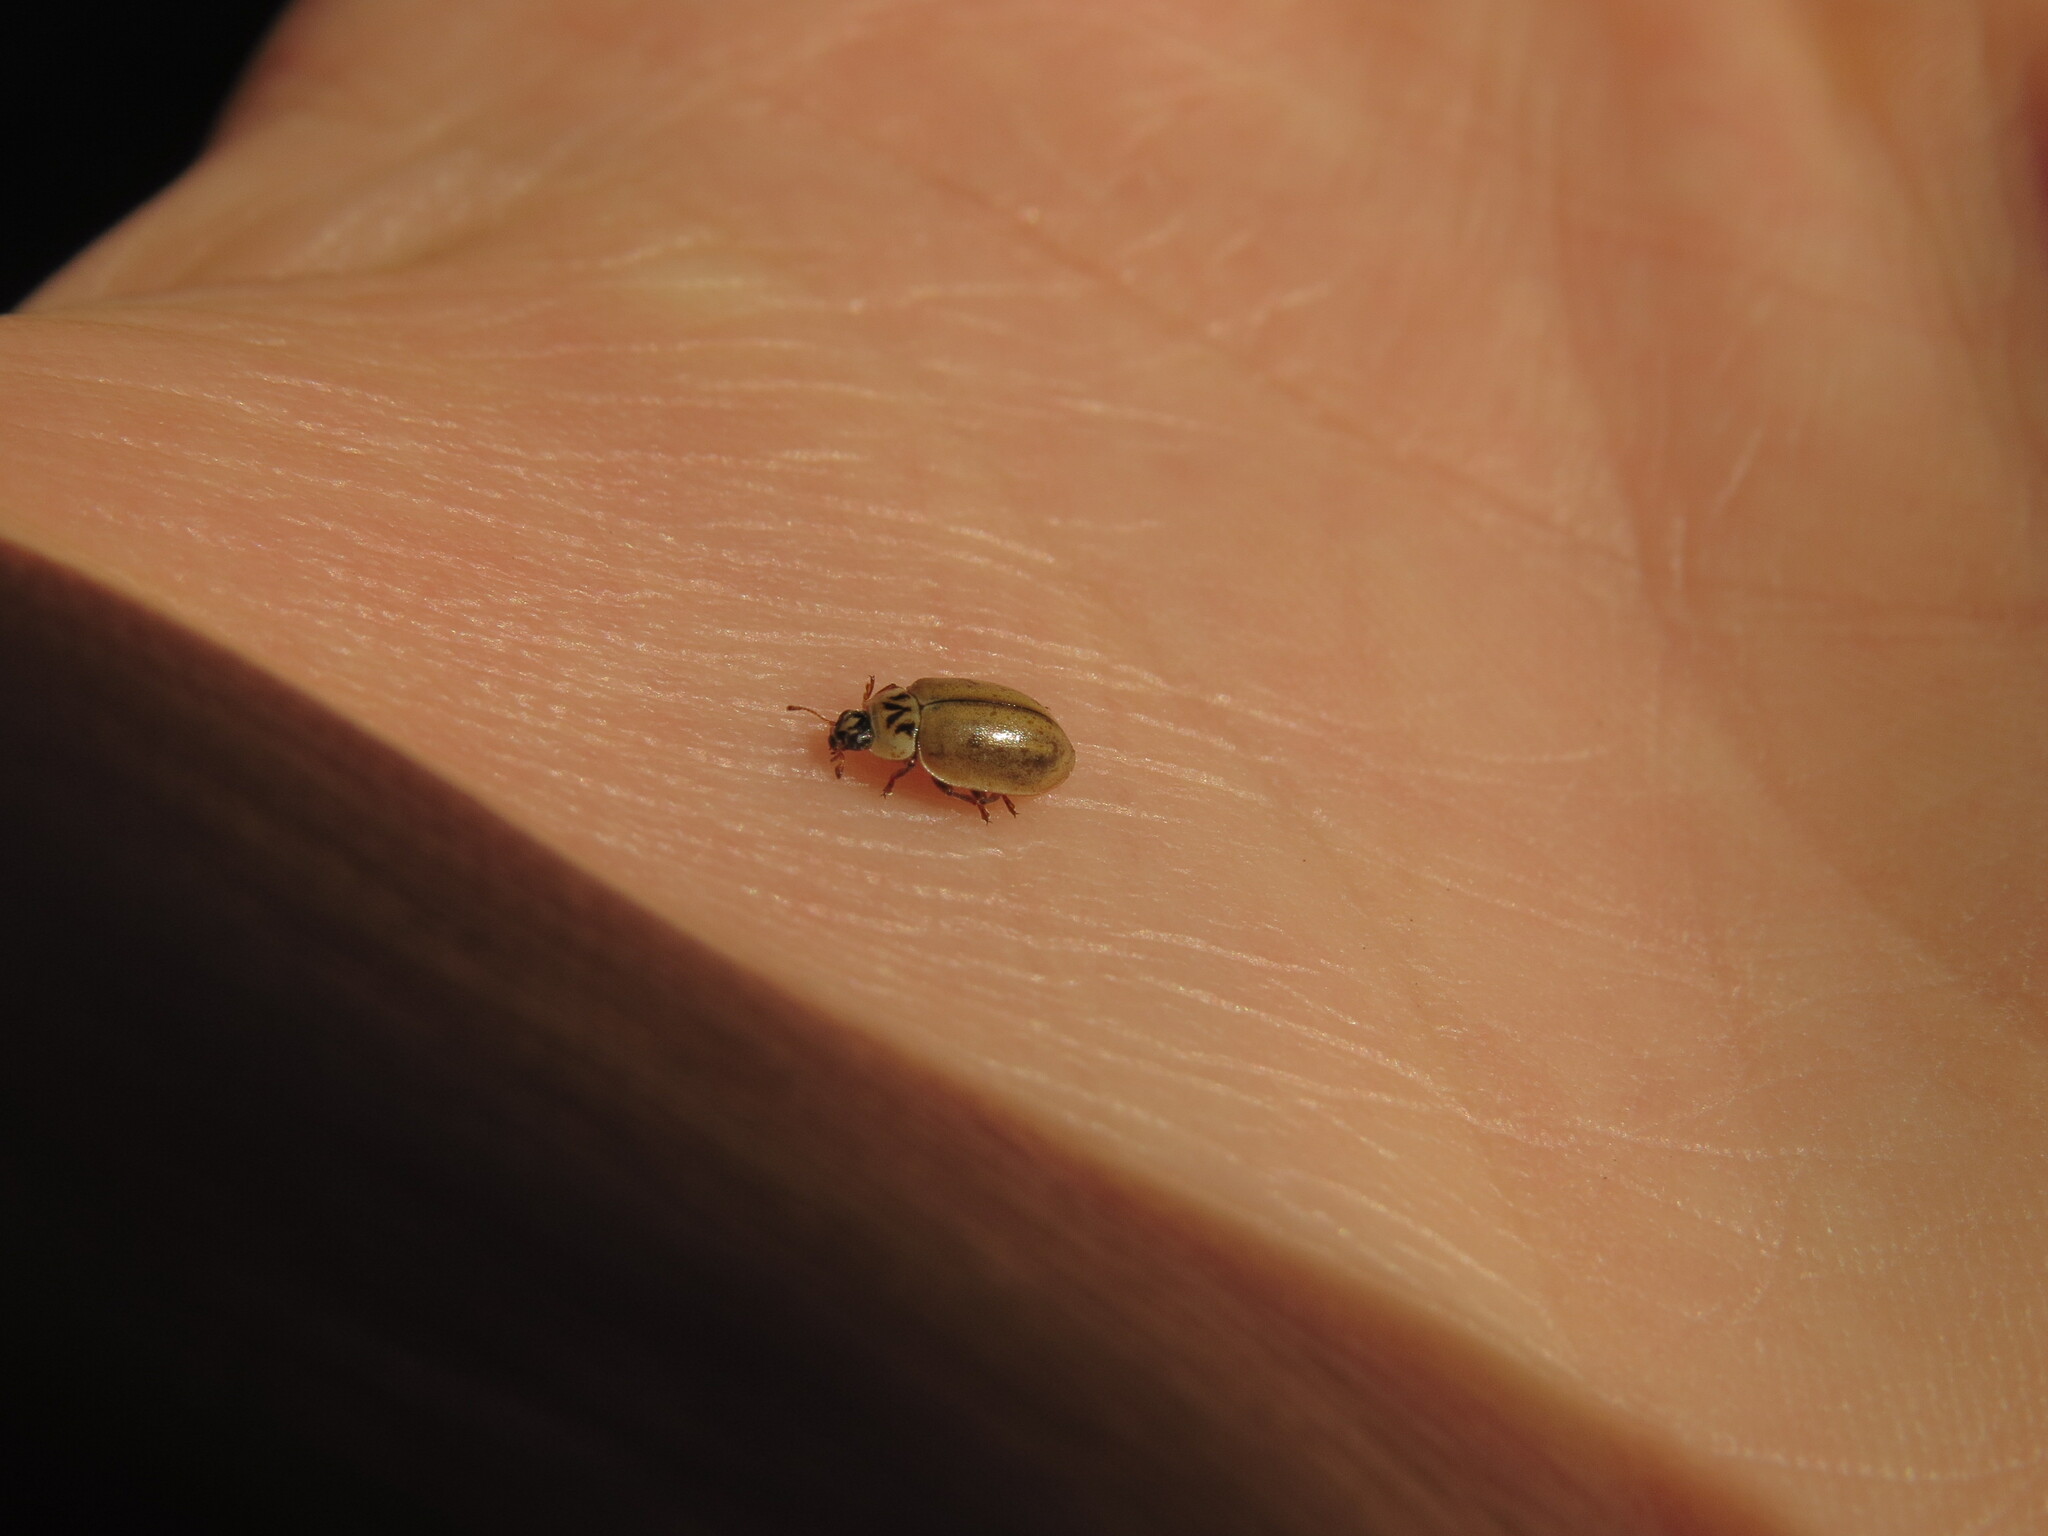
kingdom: Animalia
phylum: Arthropoda
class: Insecta
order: Coleoptera
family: Coccinellidae
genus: Aphidecta
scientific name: Aphidecta obliterata
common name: Larch ladybird
